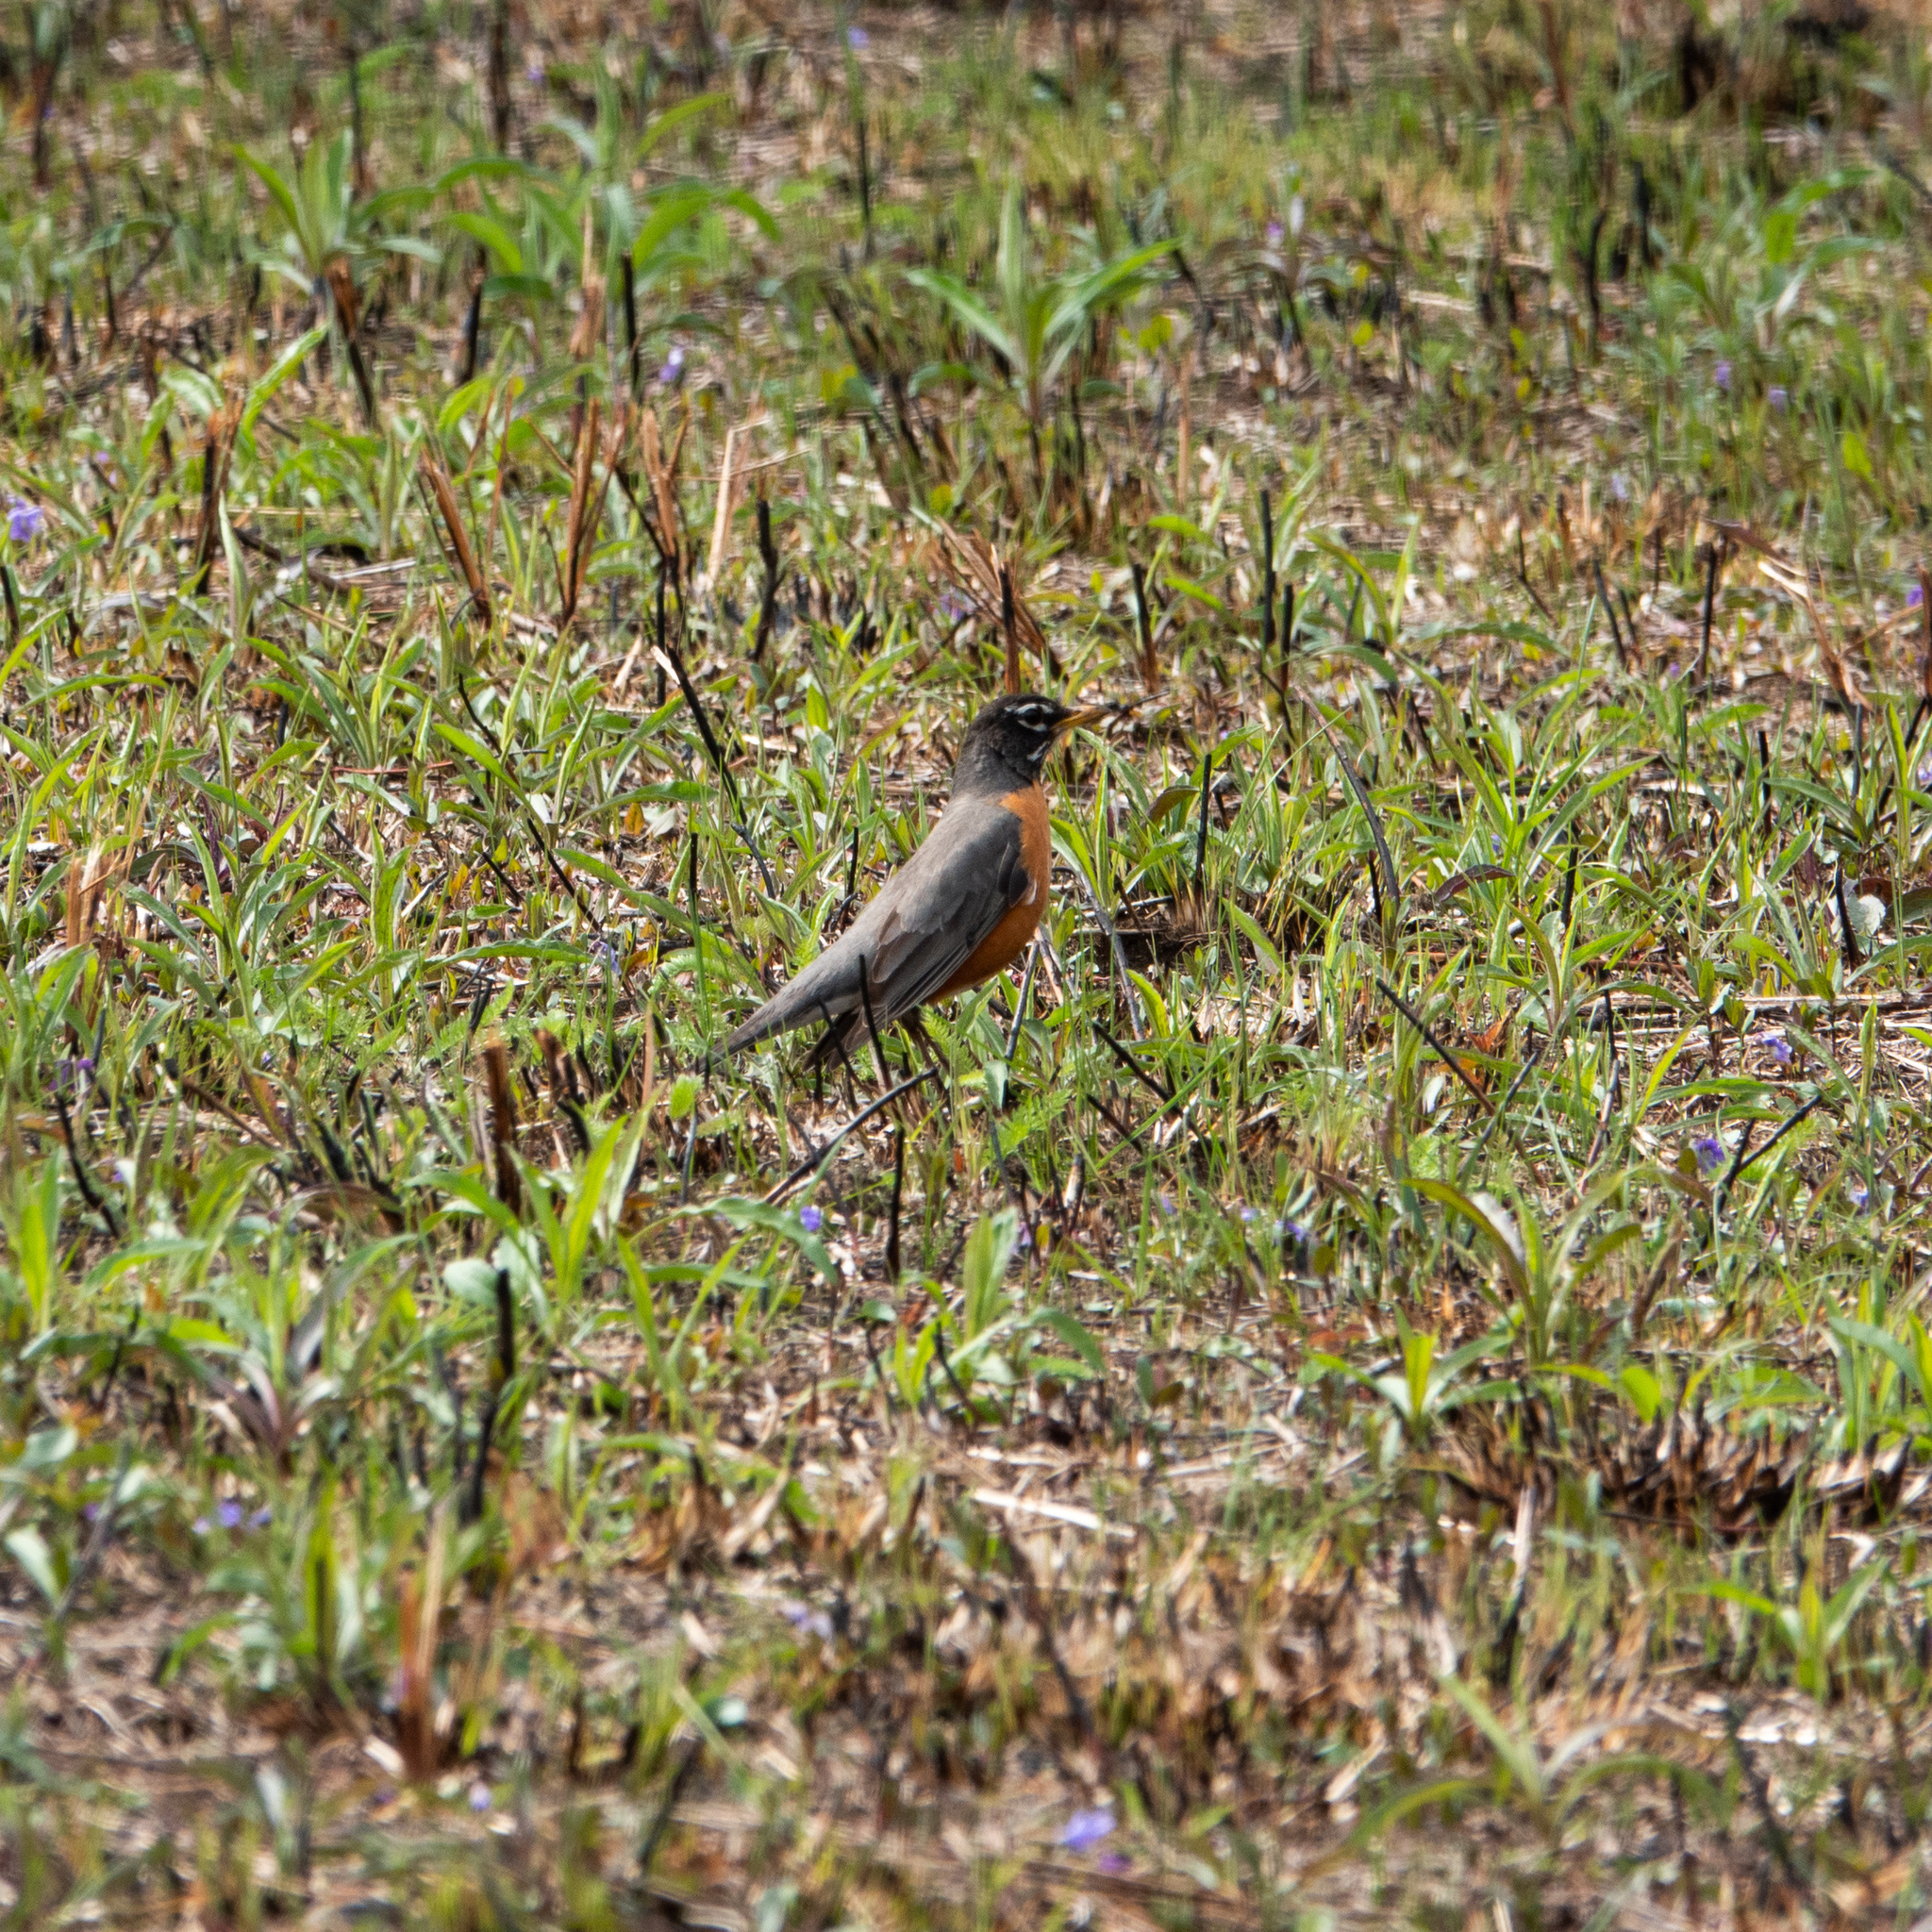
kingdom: Animalia
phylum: Chordata
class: Aves
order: Passeriformes
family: Turdidae
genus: Turdus
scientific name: Turdus migratorius
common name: American robin
